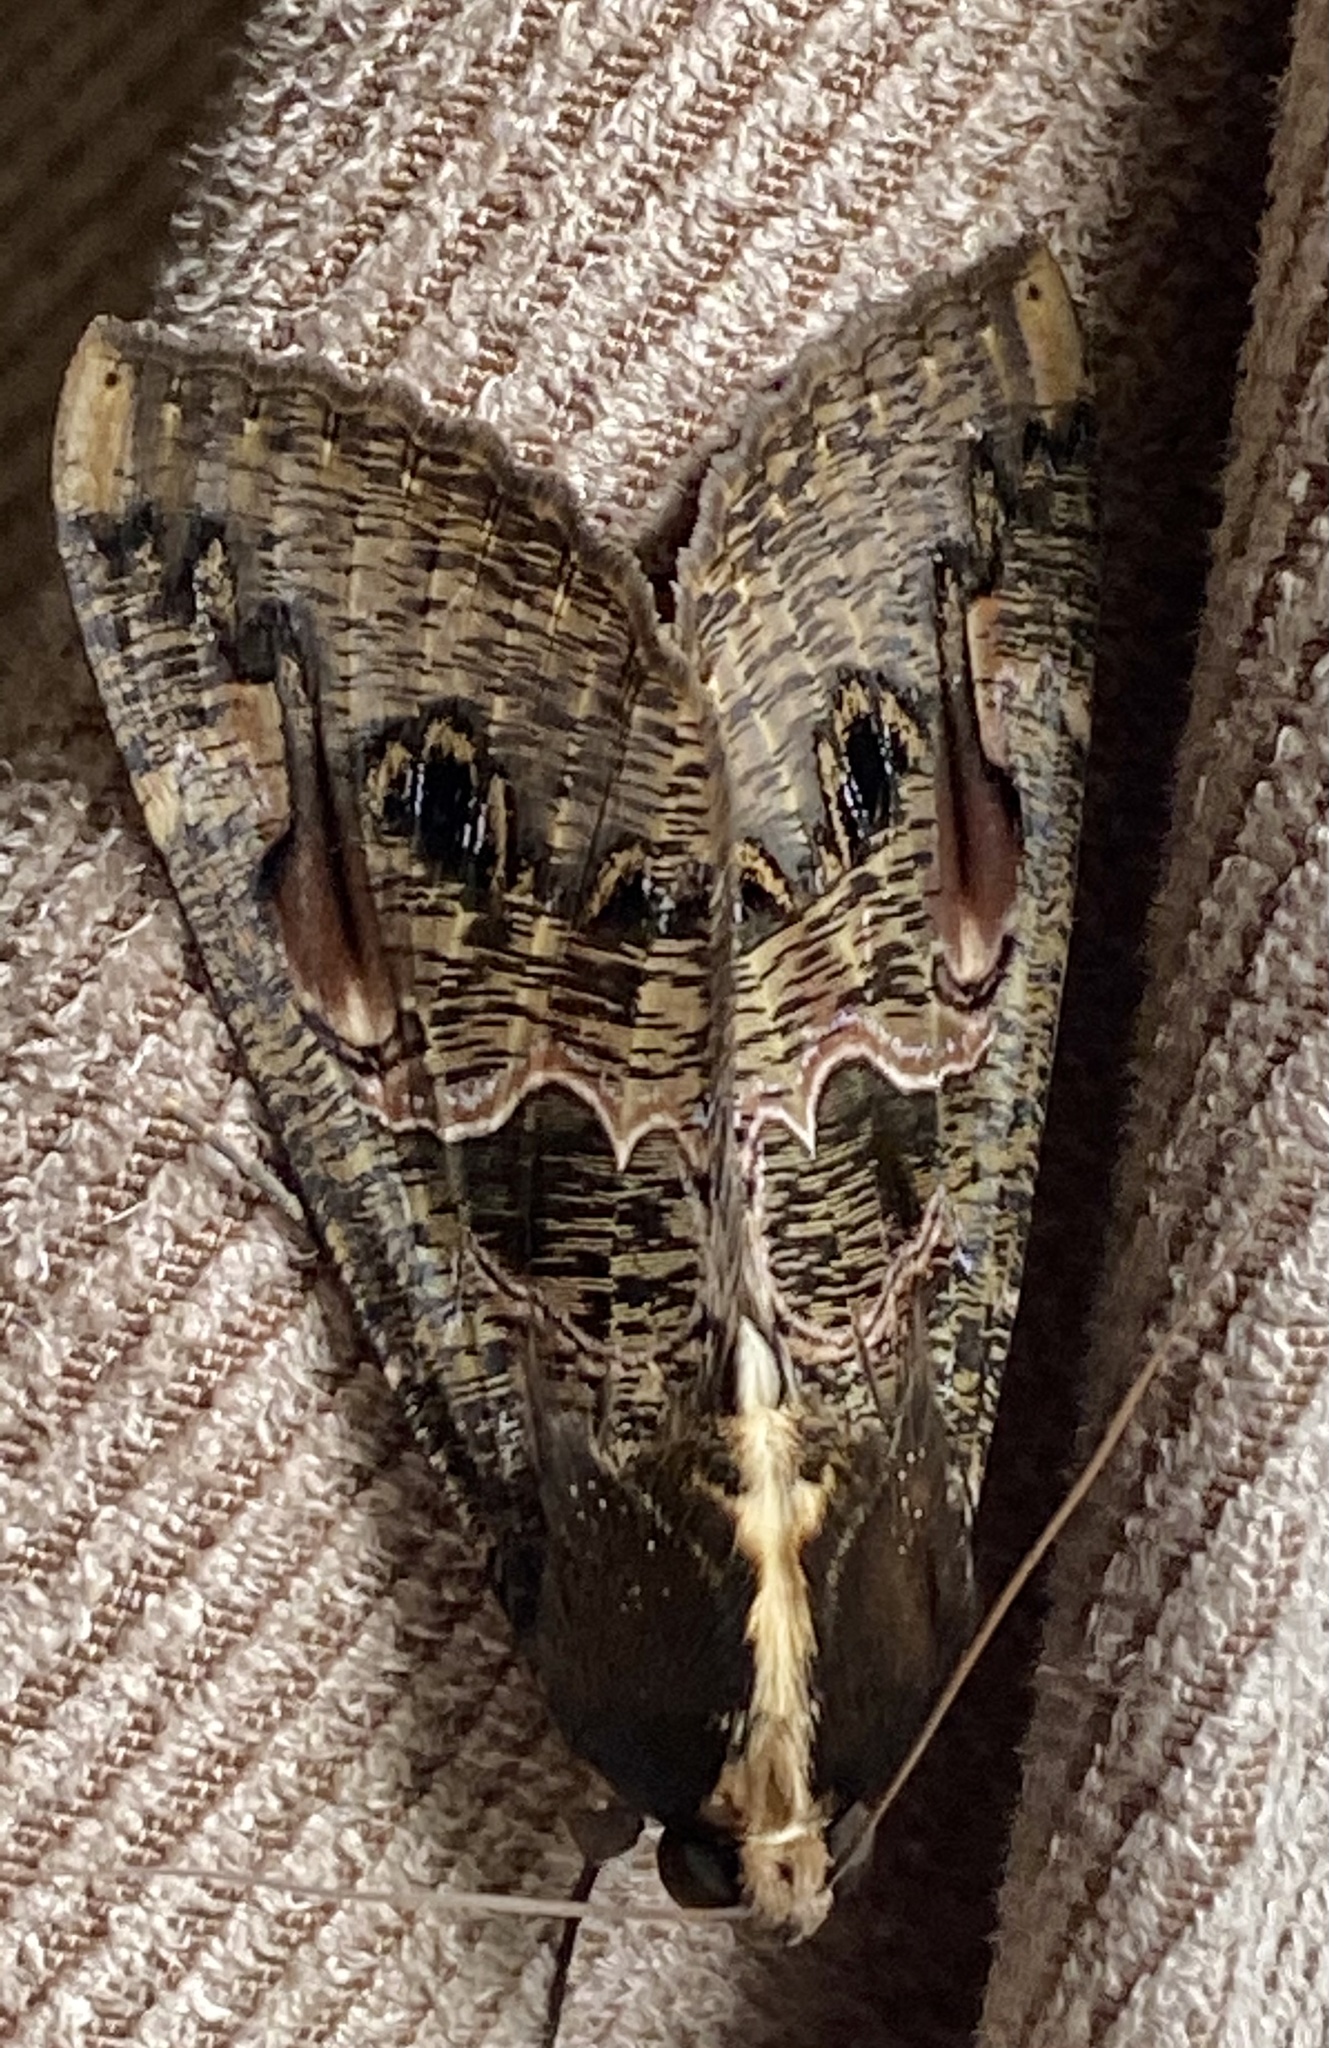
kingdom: Animalia
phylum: Arthropoda
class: Insecta
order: Lepidoptera
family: Erebidae
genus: Sphingomorpha
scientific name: Sphingomorpha chlorea
